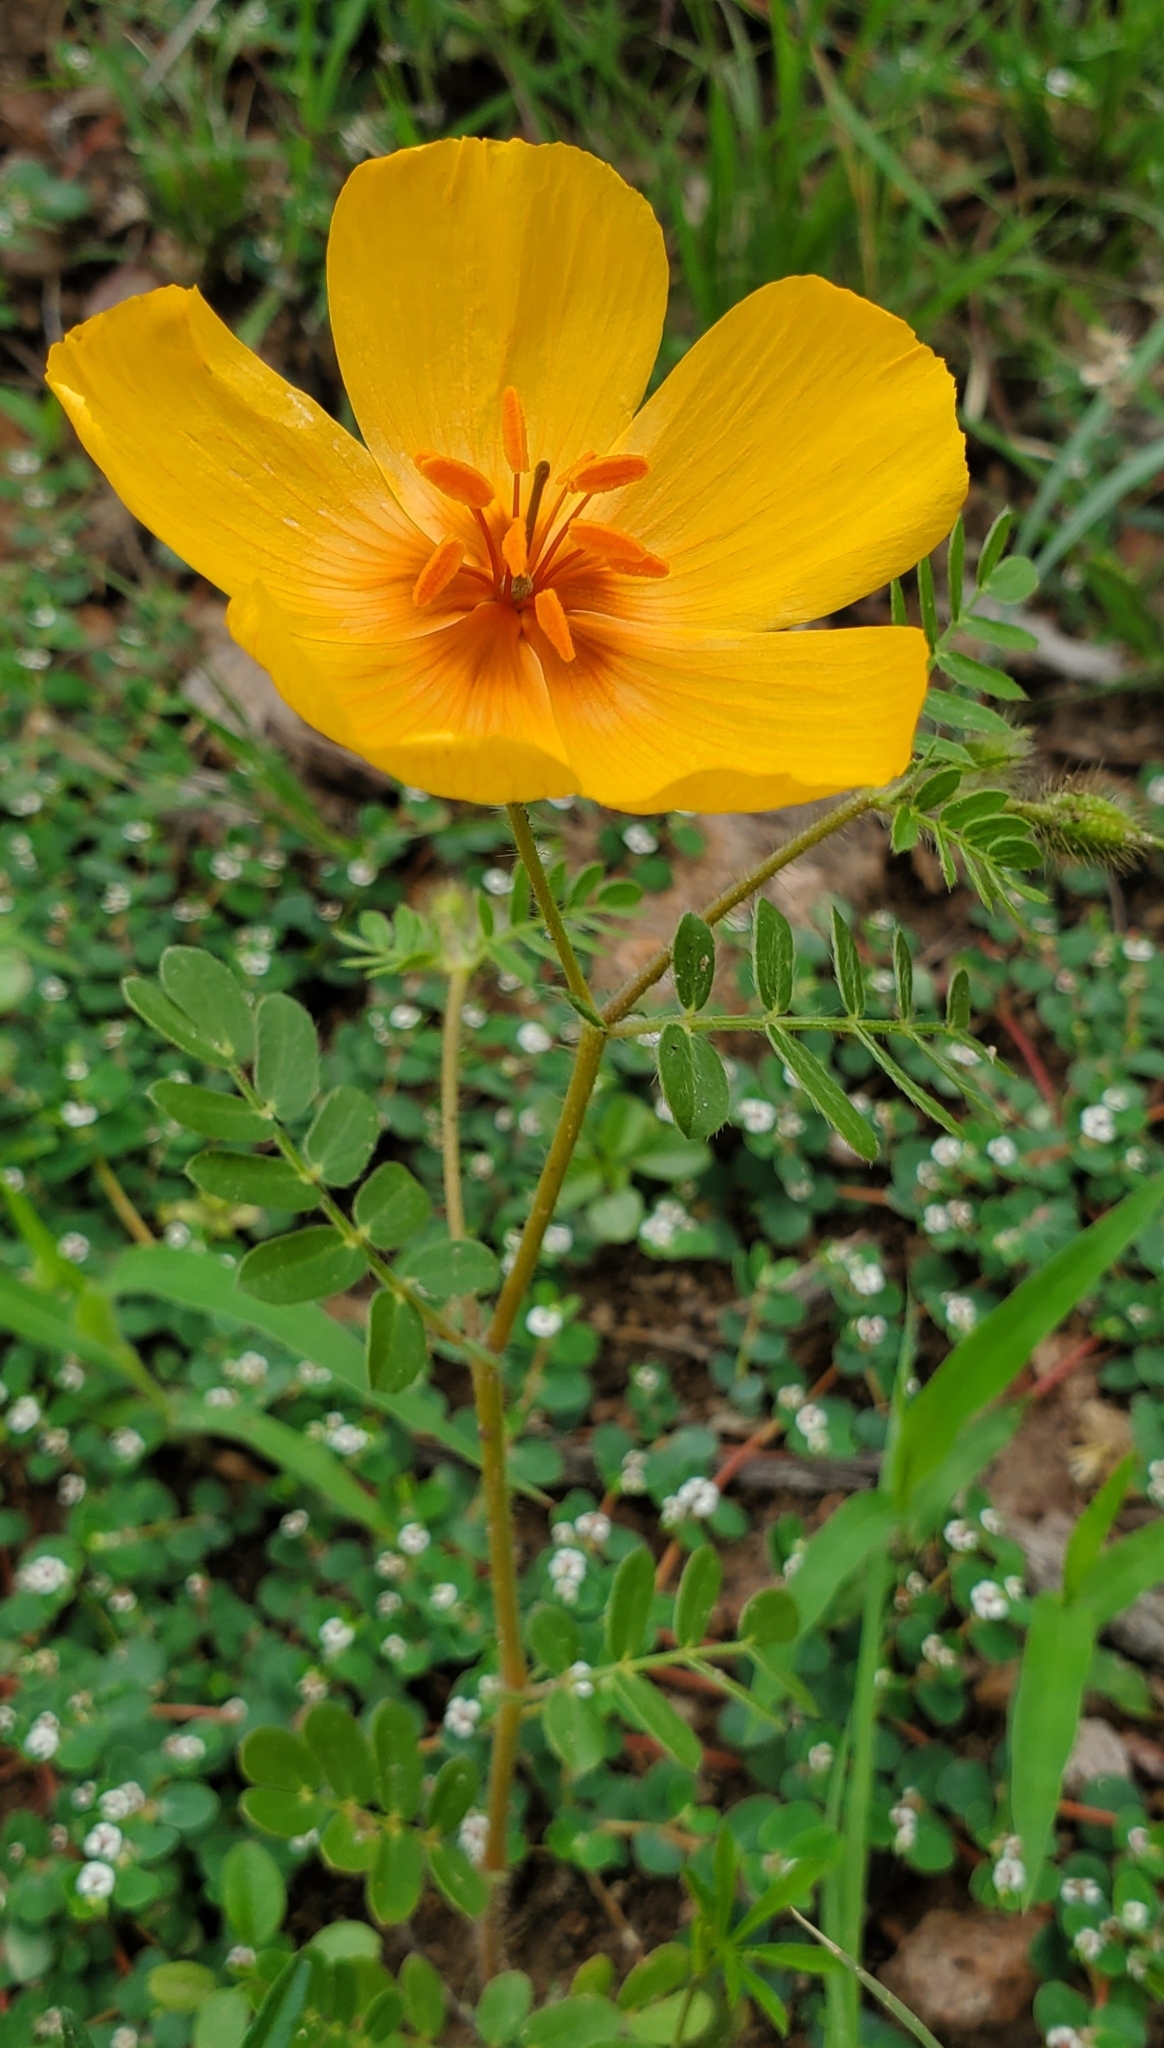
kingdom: Plantae
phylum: Tracheophyta
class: Magnoliopsida
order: Zygophyllales
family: Zygophyllaceae
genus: Kallstroemia
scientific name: Kallstroemia grandiflora
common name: Arizona-poppy
